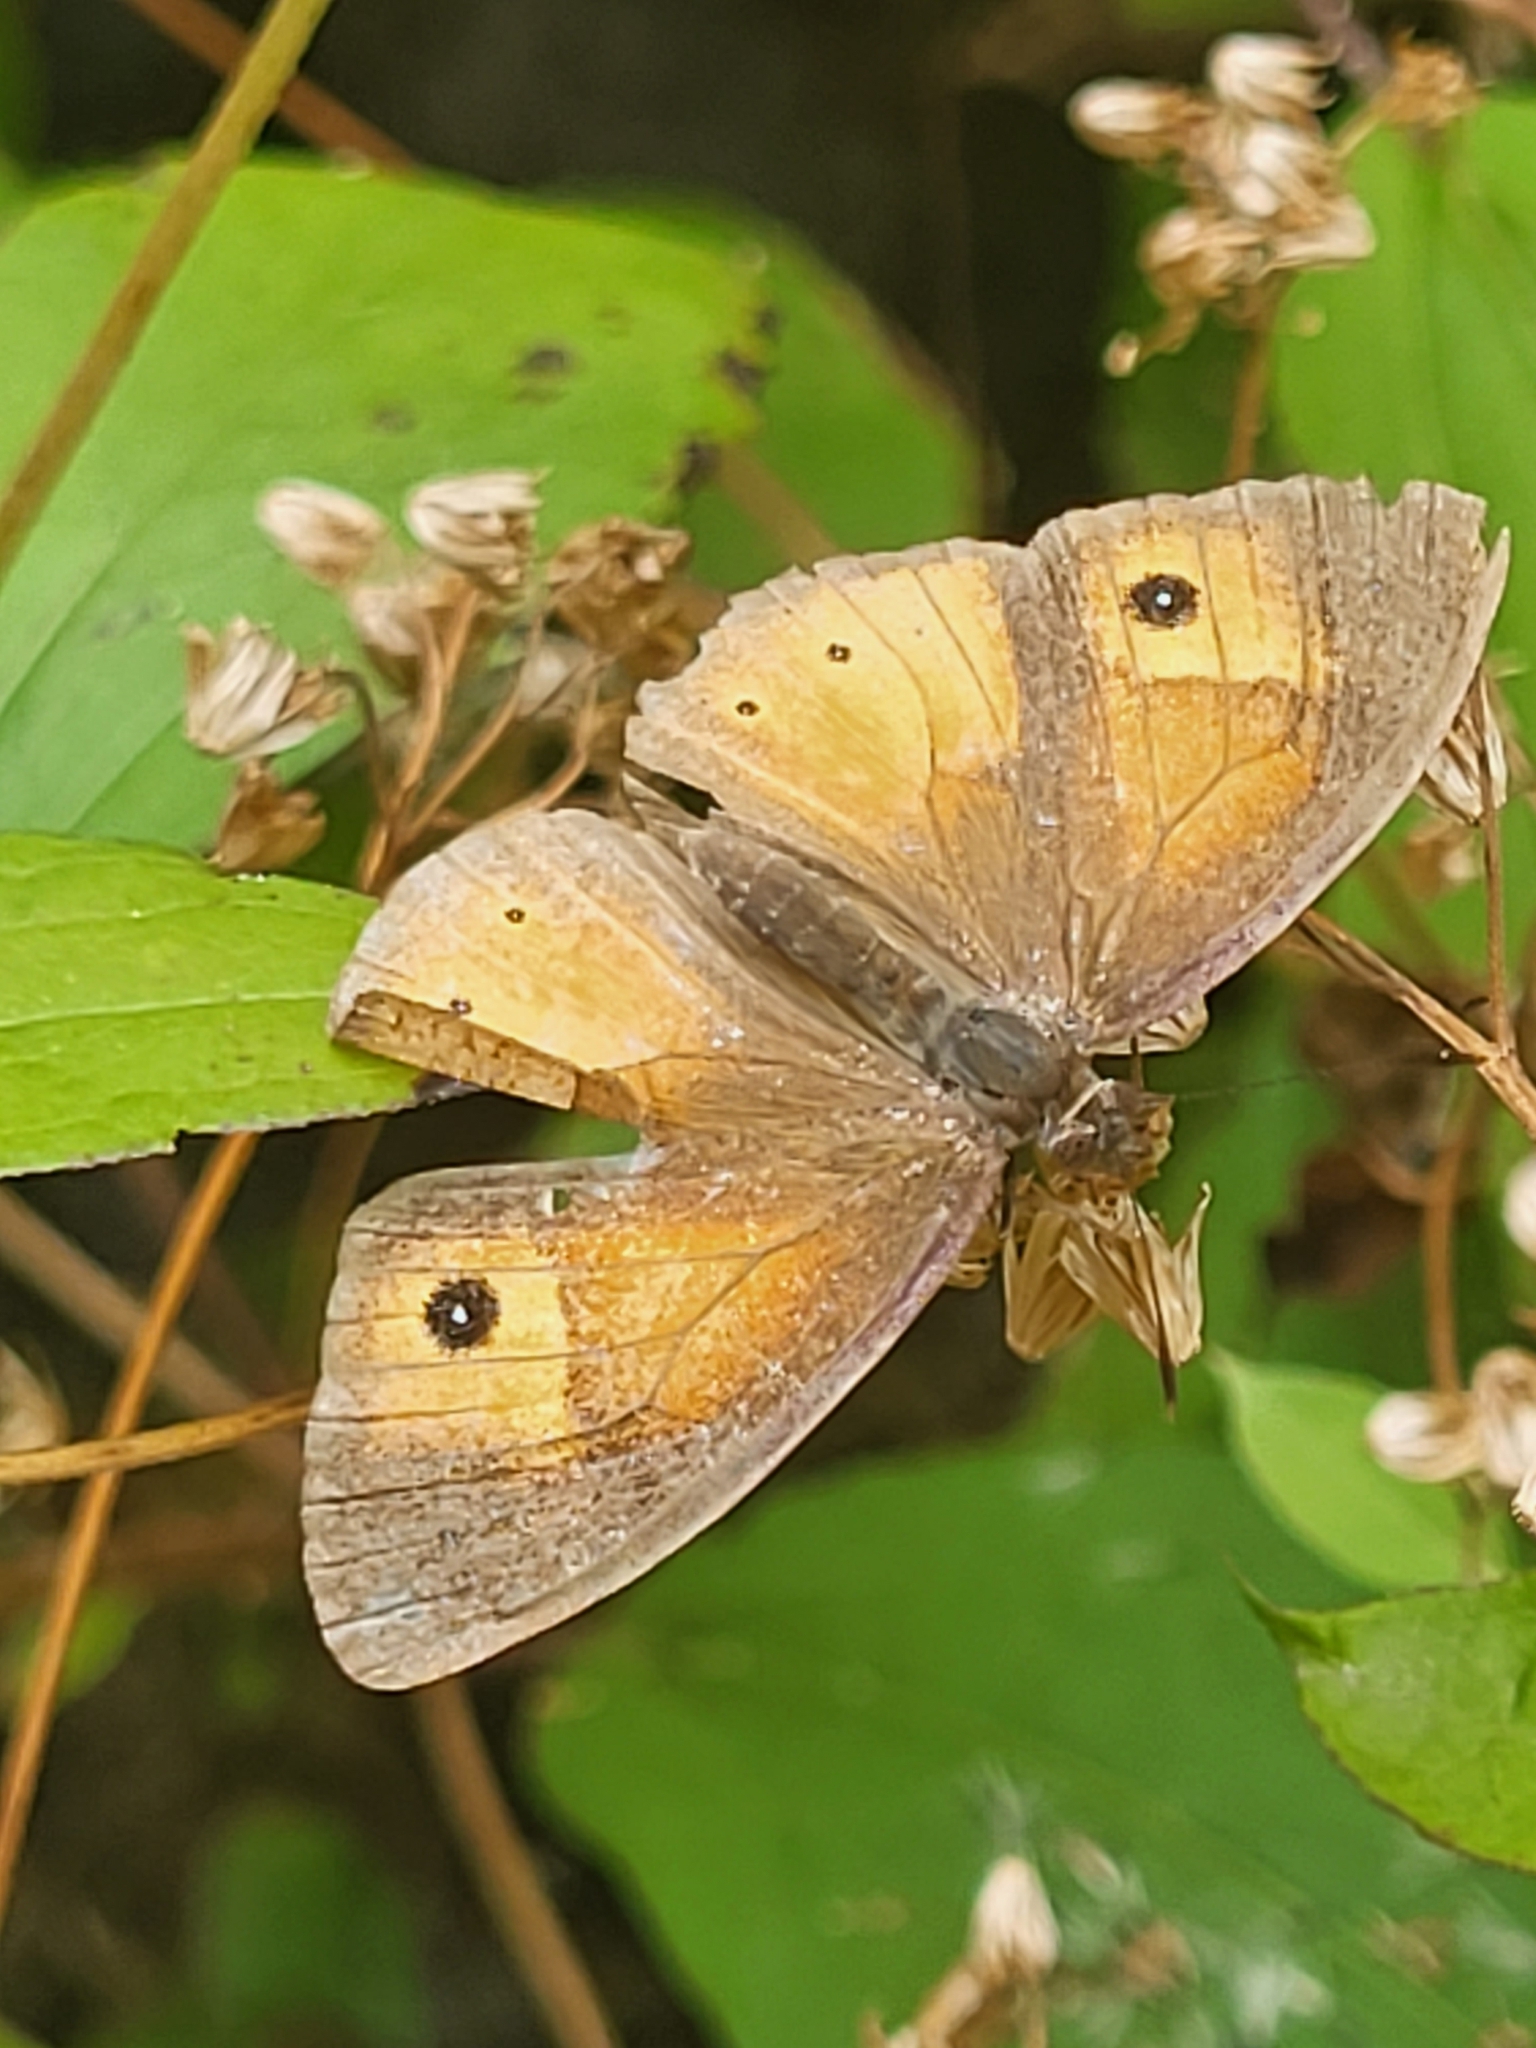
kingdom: Animalia
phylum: Arthropoda
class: Insecta
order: Lepidoptera
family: Nymphalidae
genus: Henotesia
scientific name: Henotesia narcissus
